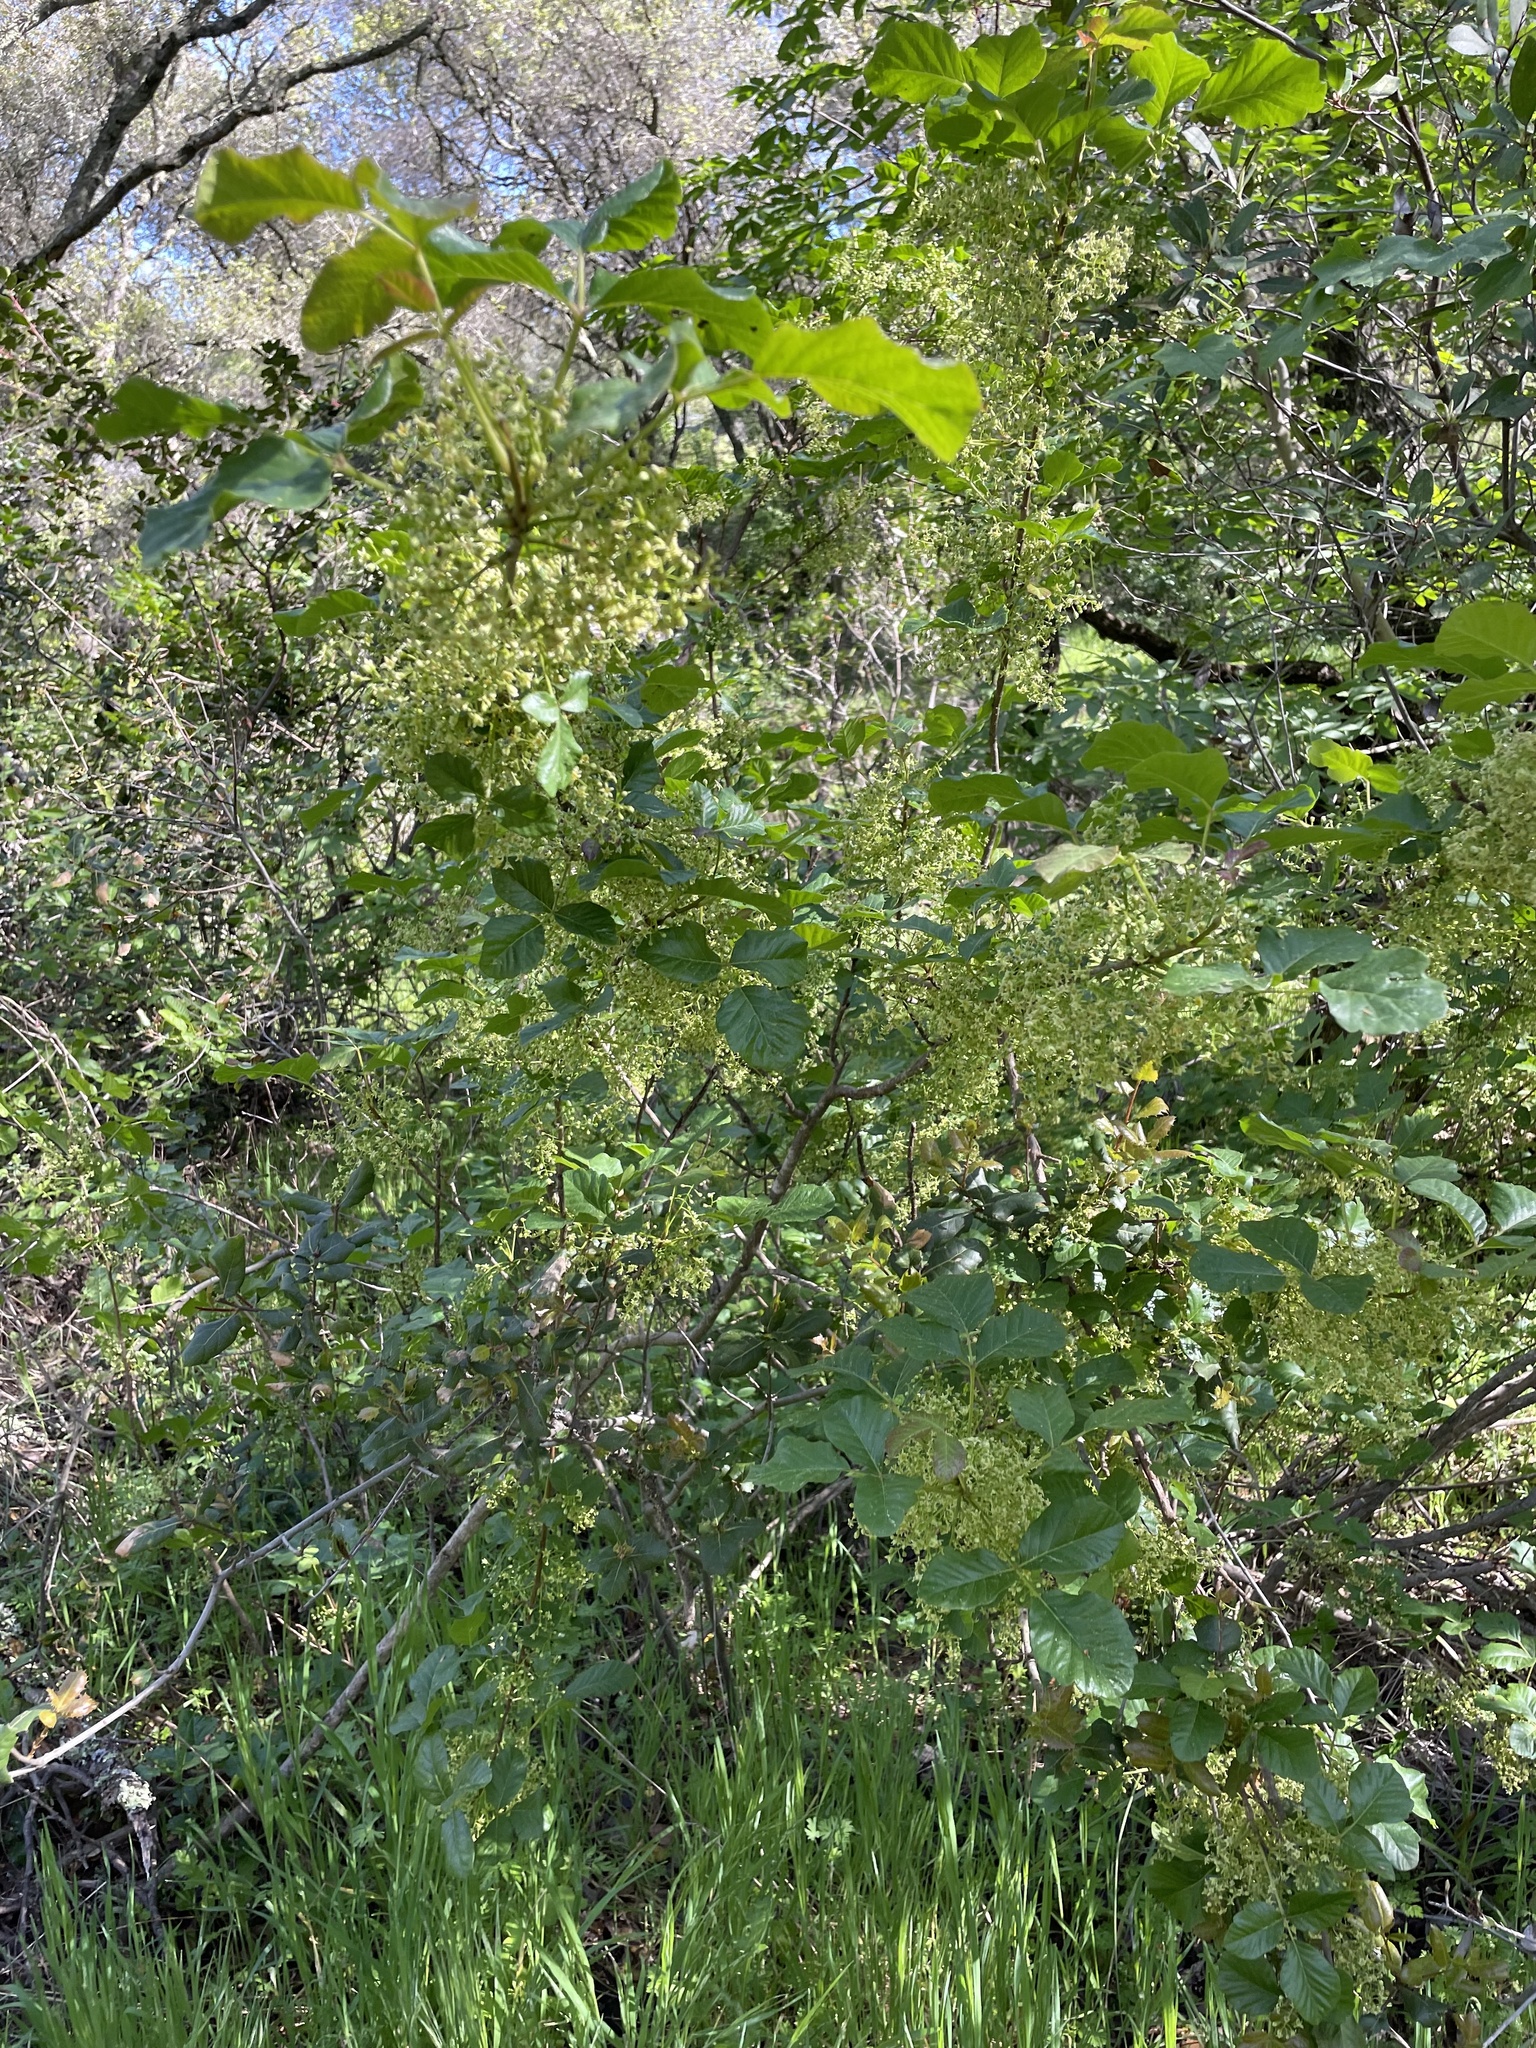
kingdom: Plantae
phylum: Tracheophyta
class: Magnoliopsida
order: Sapindales
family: Anacardiaceae
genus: Toxicodendron
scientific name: Toxicodendron diversilobum
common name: Pacific poison-oak
